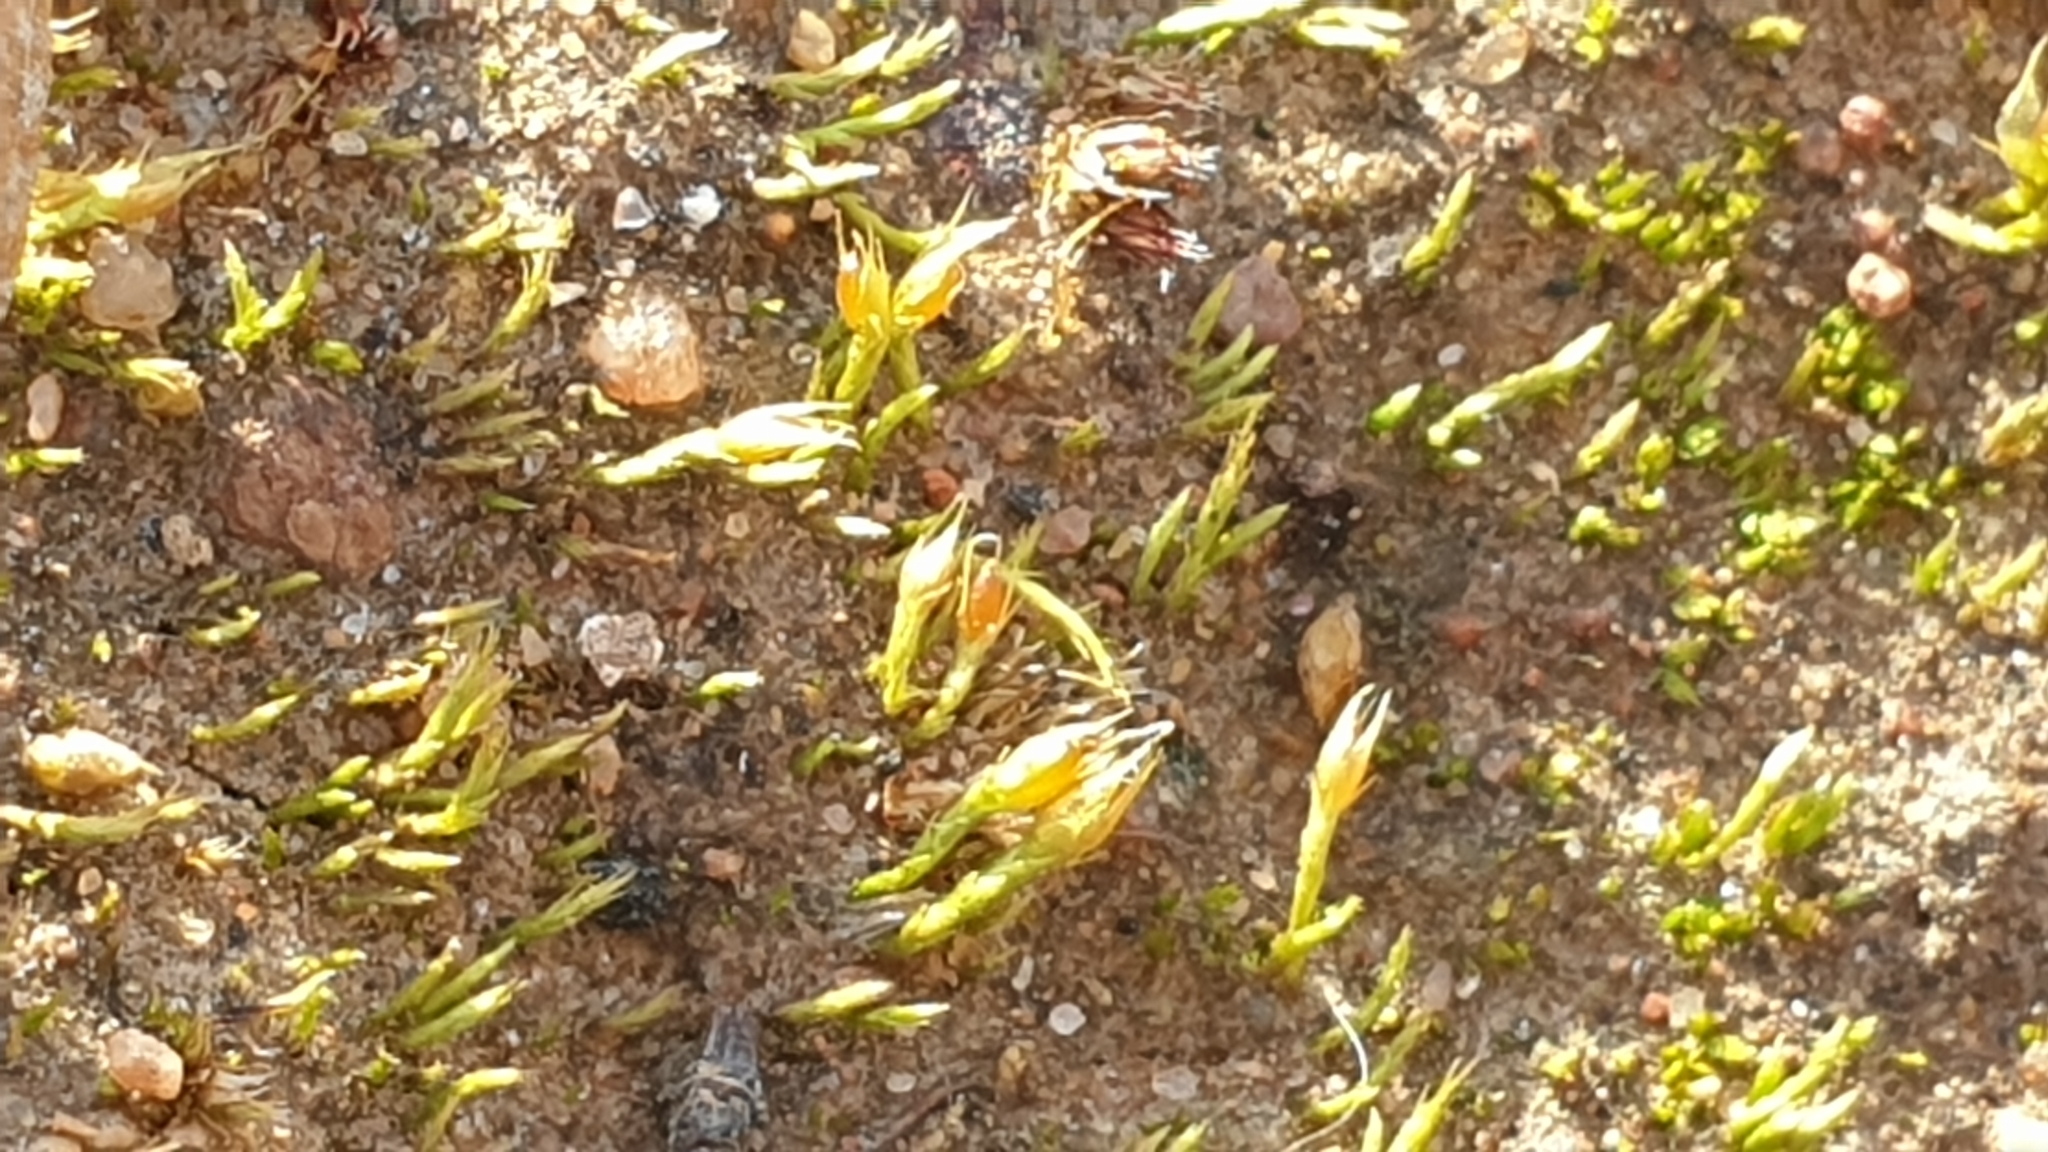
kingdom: Plantae
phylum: Bryophyta
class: Bryopsida
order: Dicranales
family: Ditrichaceae
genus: Pleuridium
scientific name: Pleuridium nervosum
